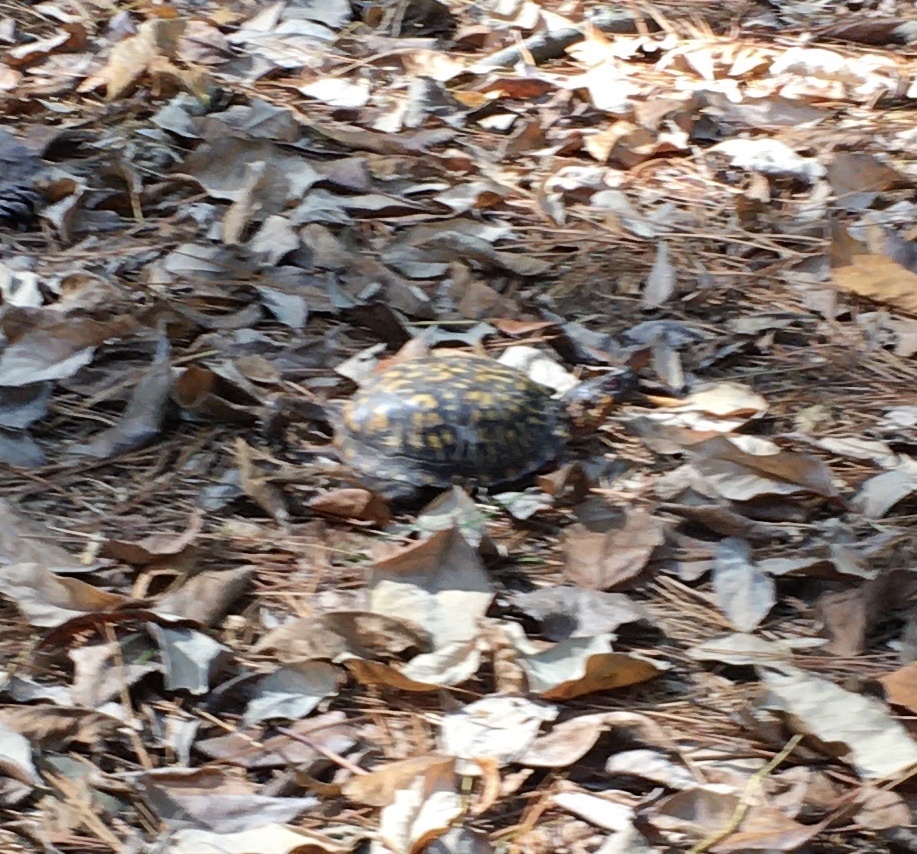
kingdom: Animalia
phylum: Chordata
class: Testudines
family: Emydidae
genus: Terrapene
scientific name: Terrapene carolina
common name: Common box turtle
